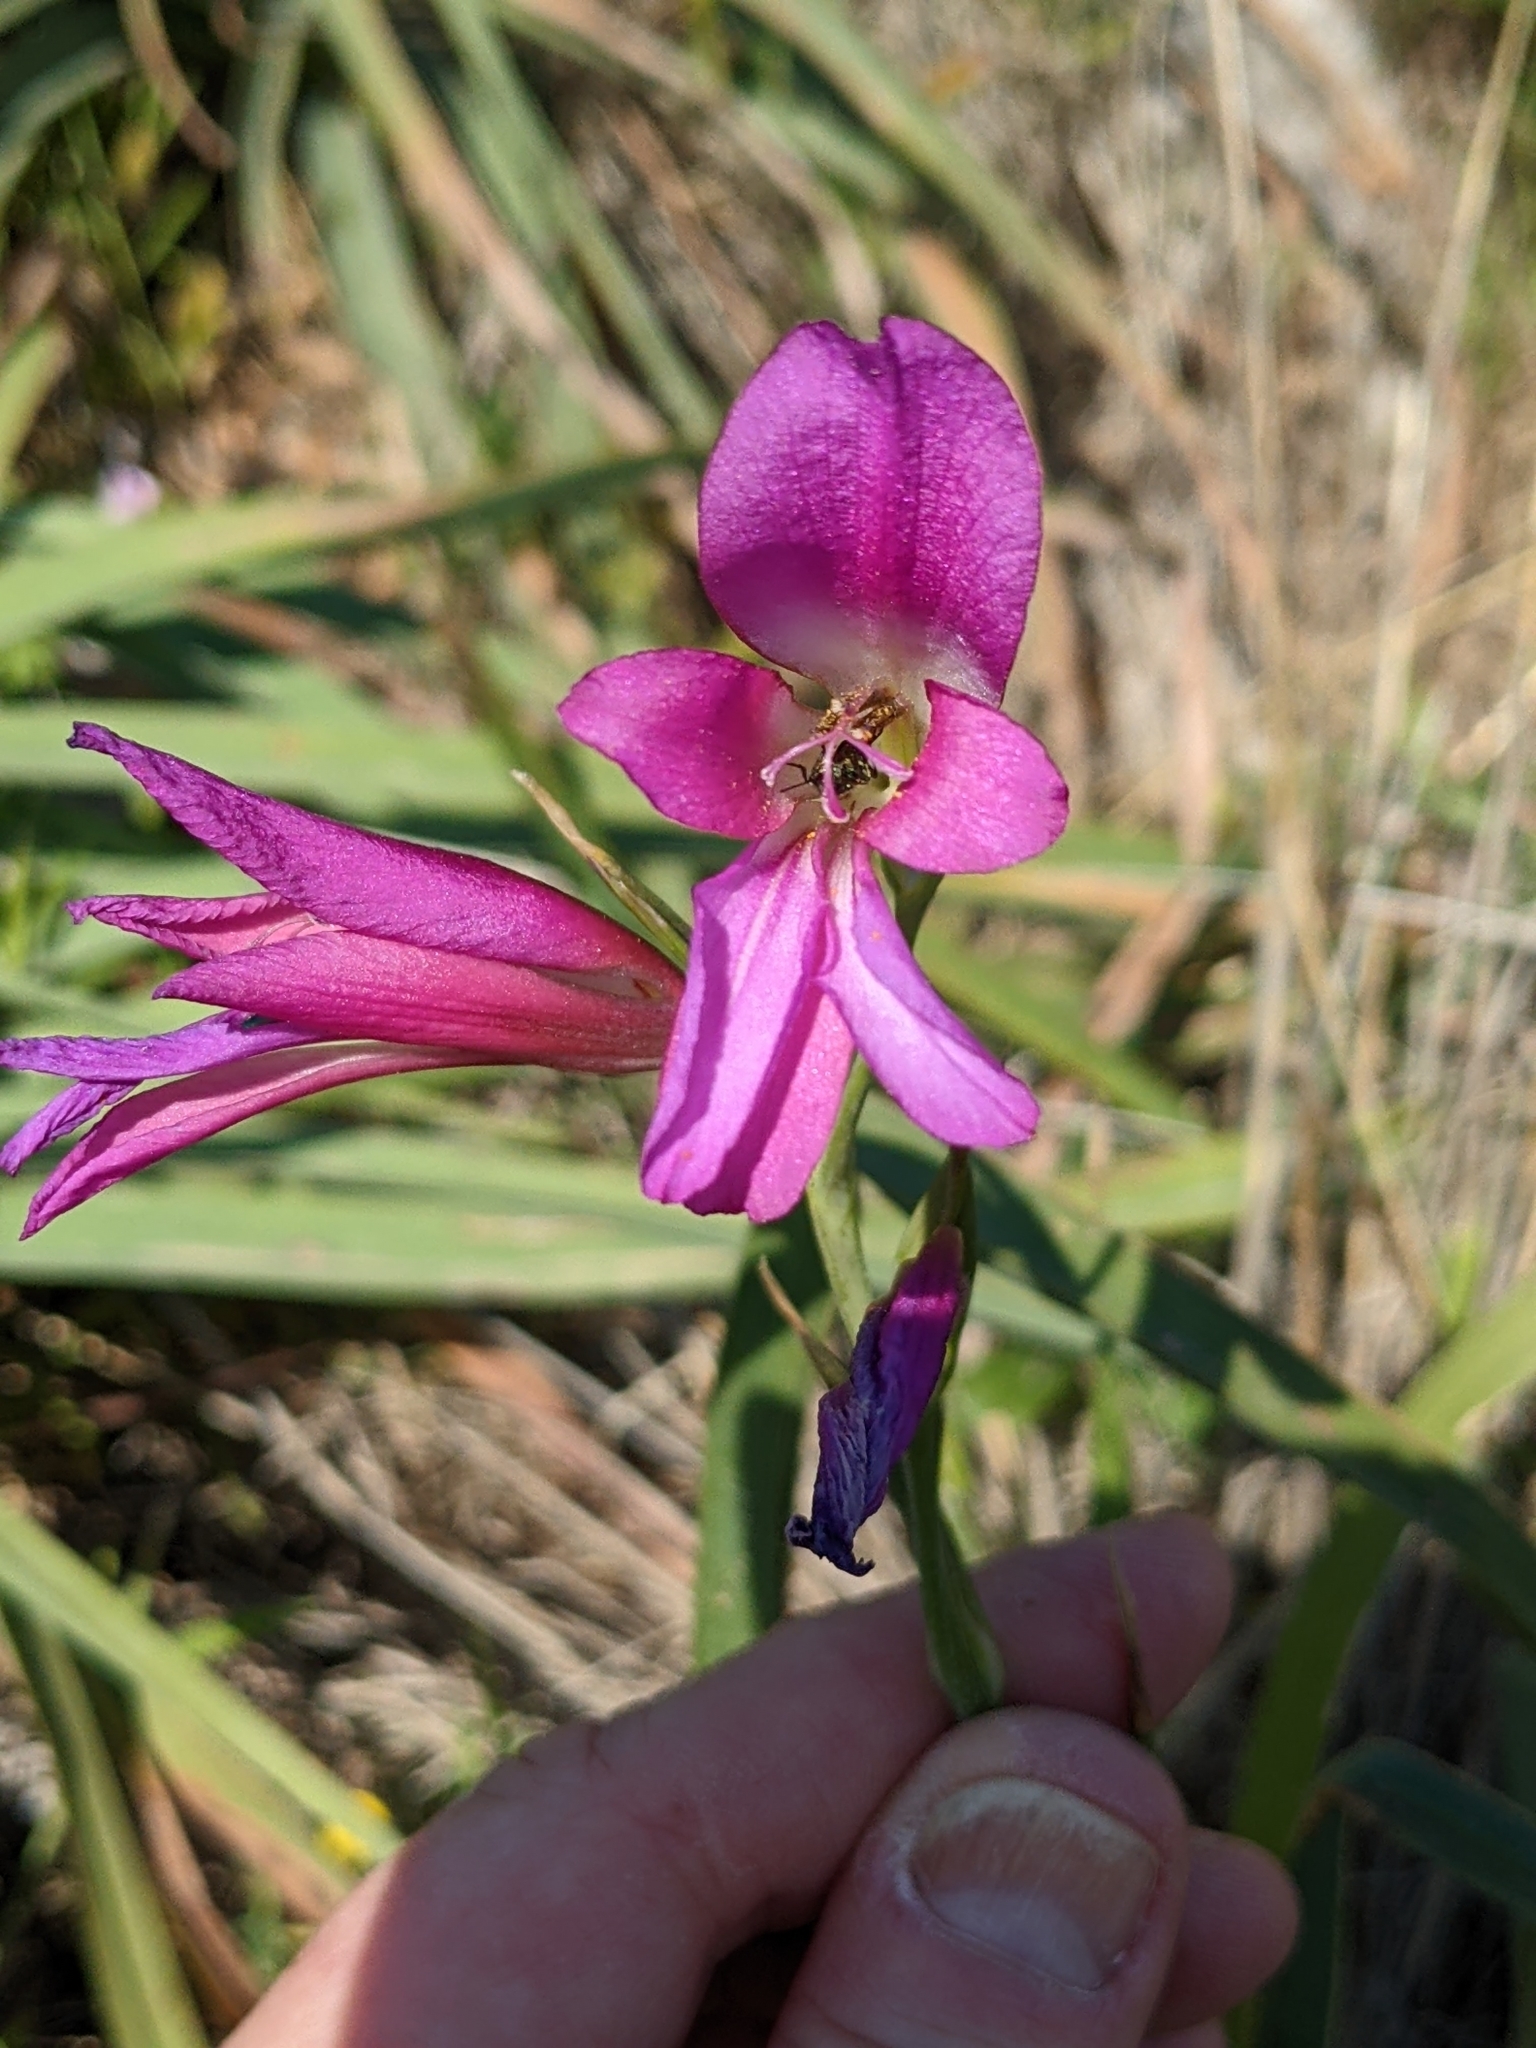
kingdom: Plantae
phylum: Tracheophyta
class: Liliopsida
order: Asparagales
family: Iridaceae
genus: Gladiolus
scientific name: Gladiolus italicus
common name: Field gladiolus
